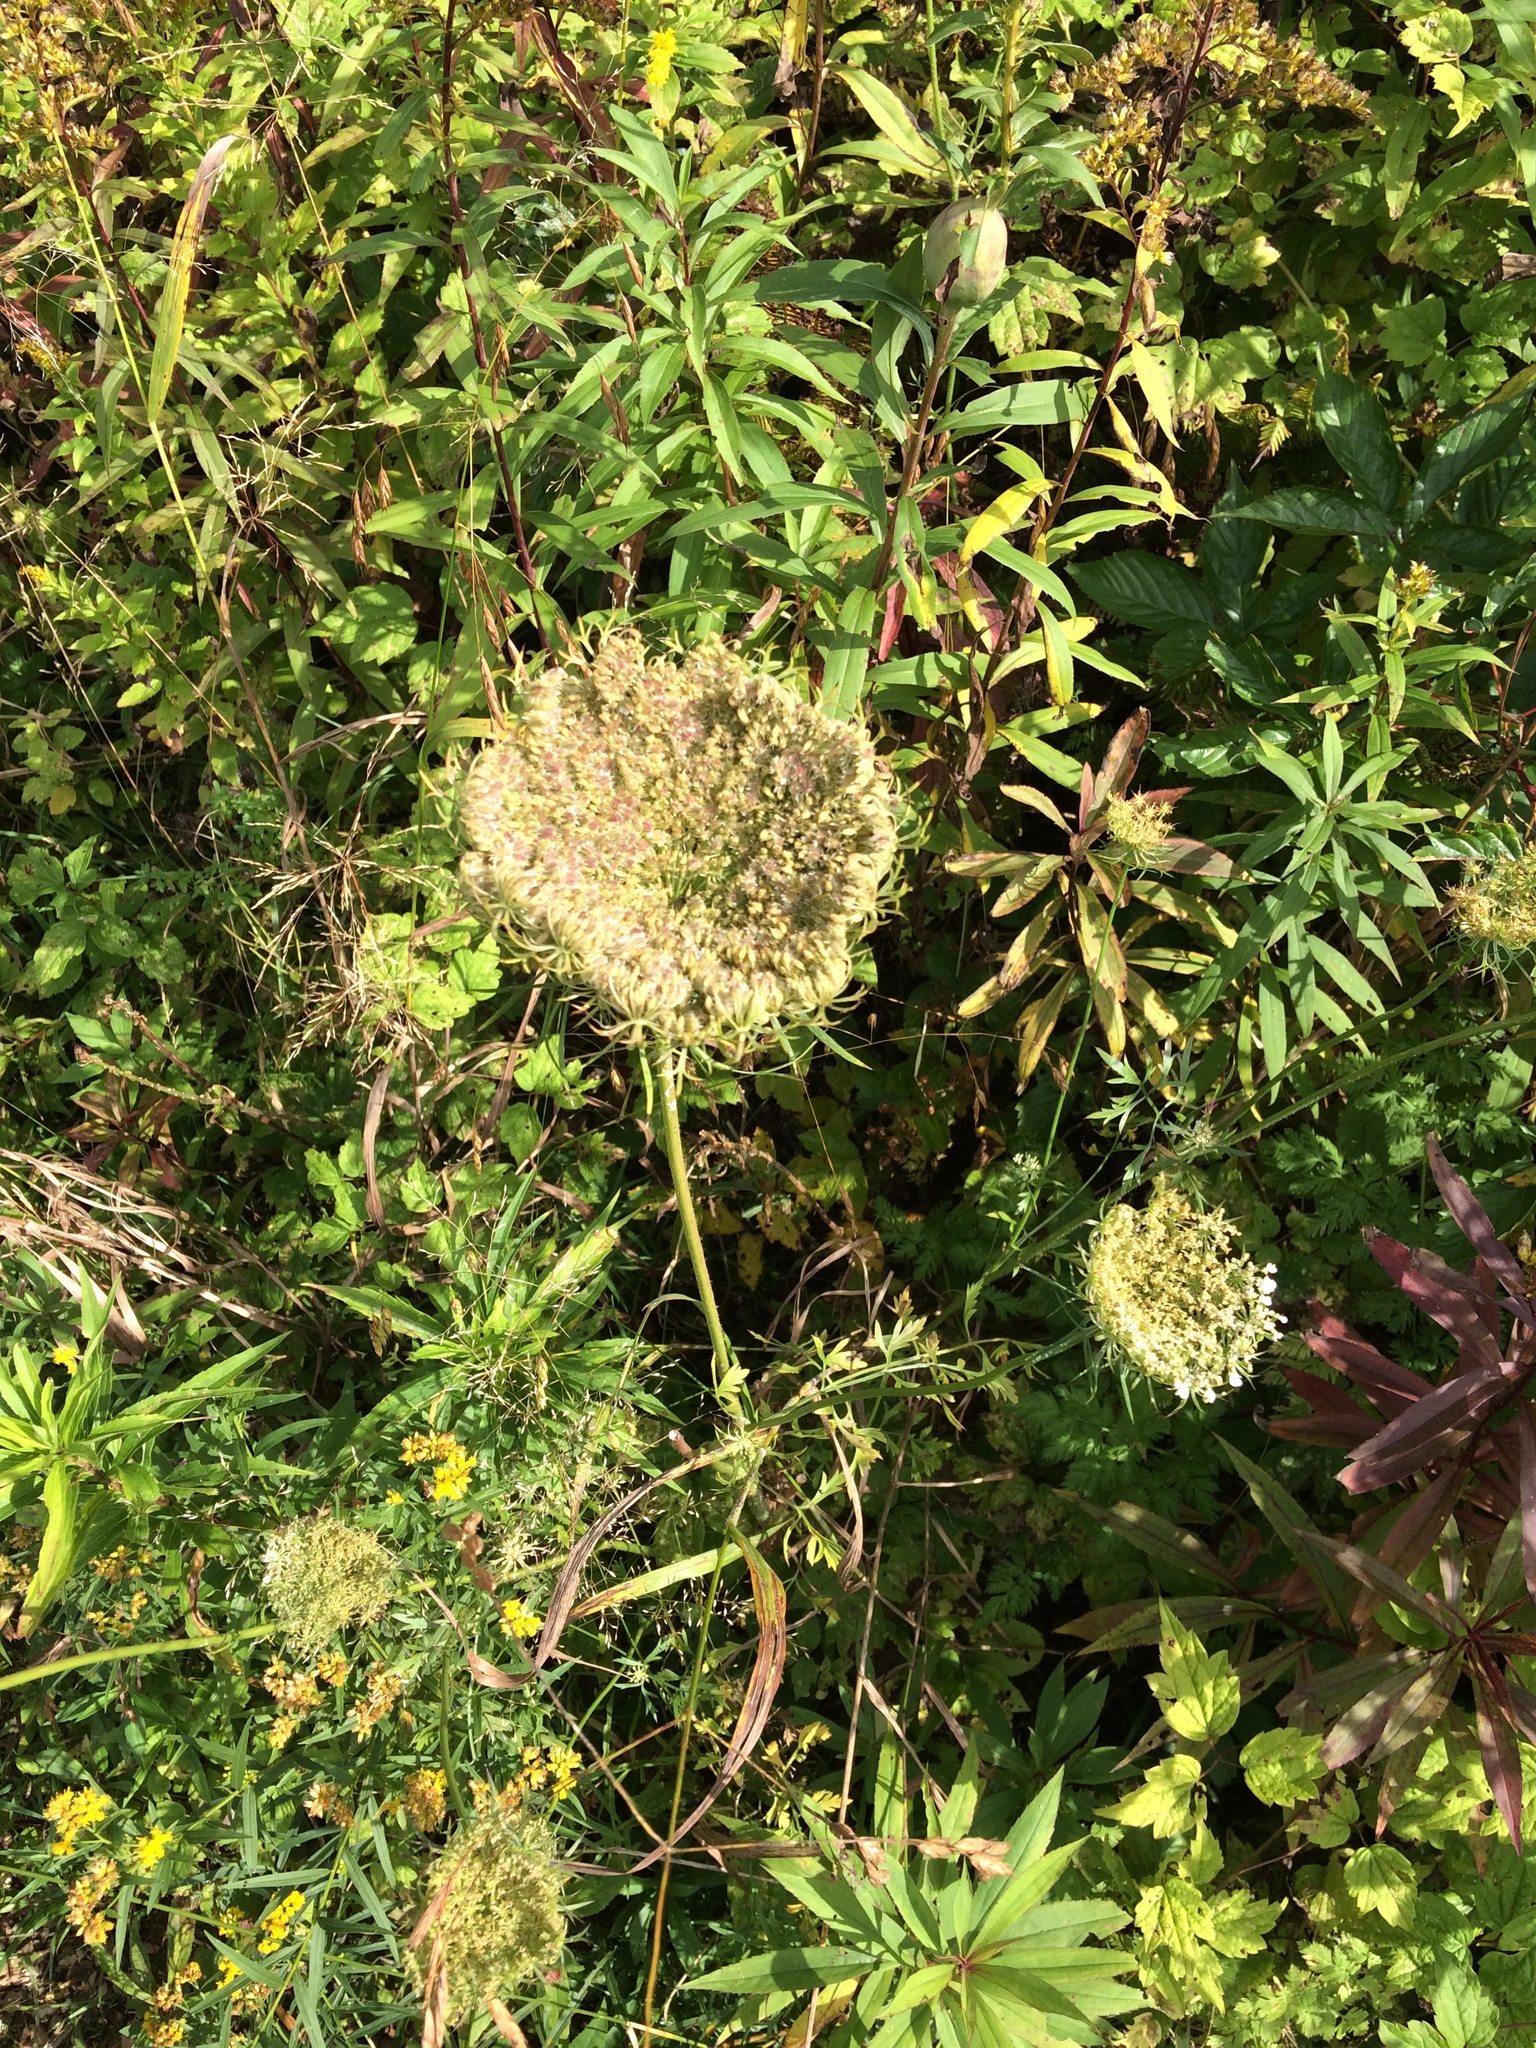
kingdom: Plantae
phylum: Tracheophyta
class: Magnoliopsida
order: Apiales
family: Apiaceae
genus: Daucus
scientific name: Daucus carota
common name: Wild carrot
